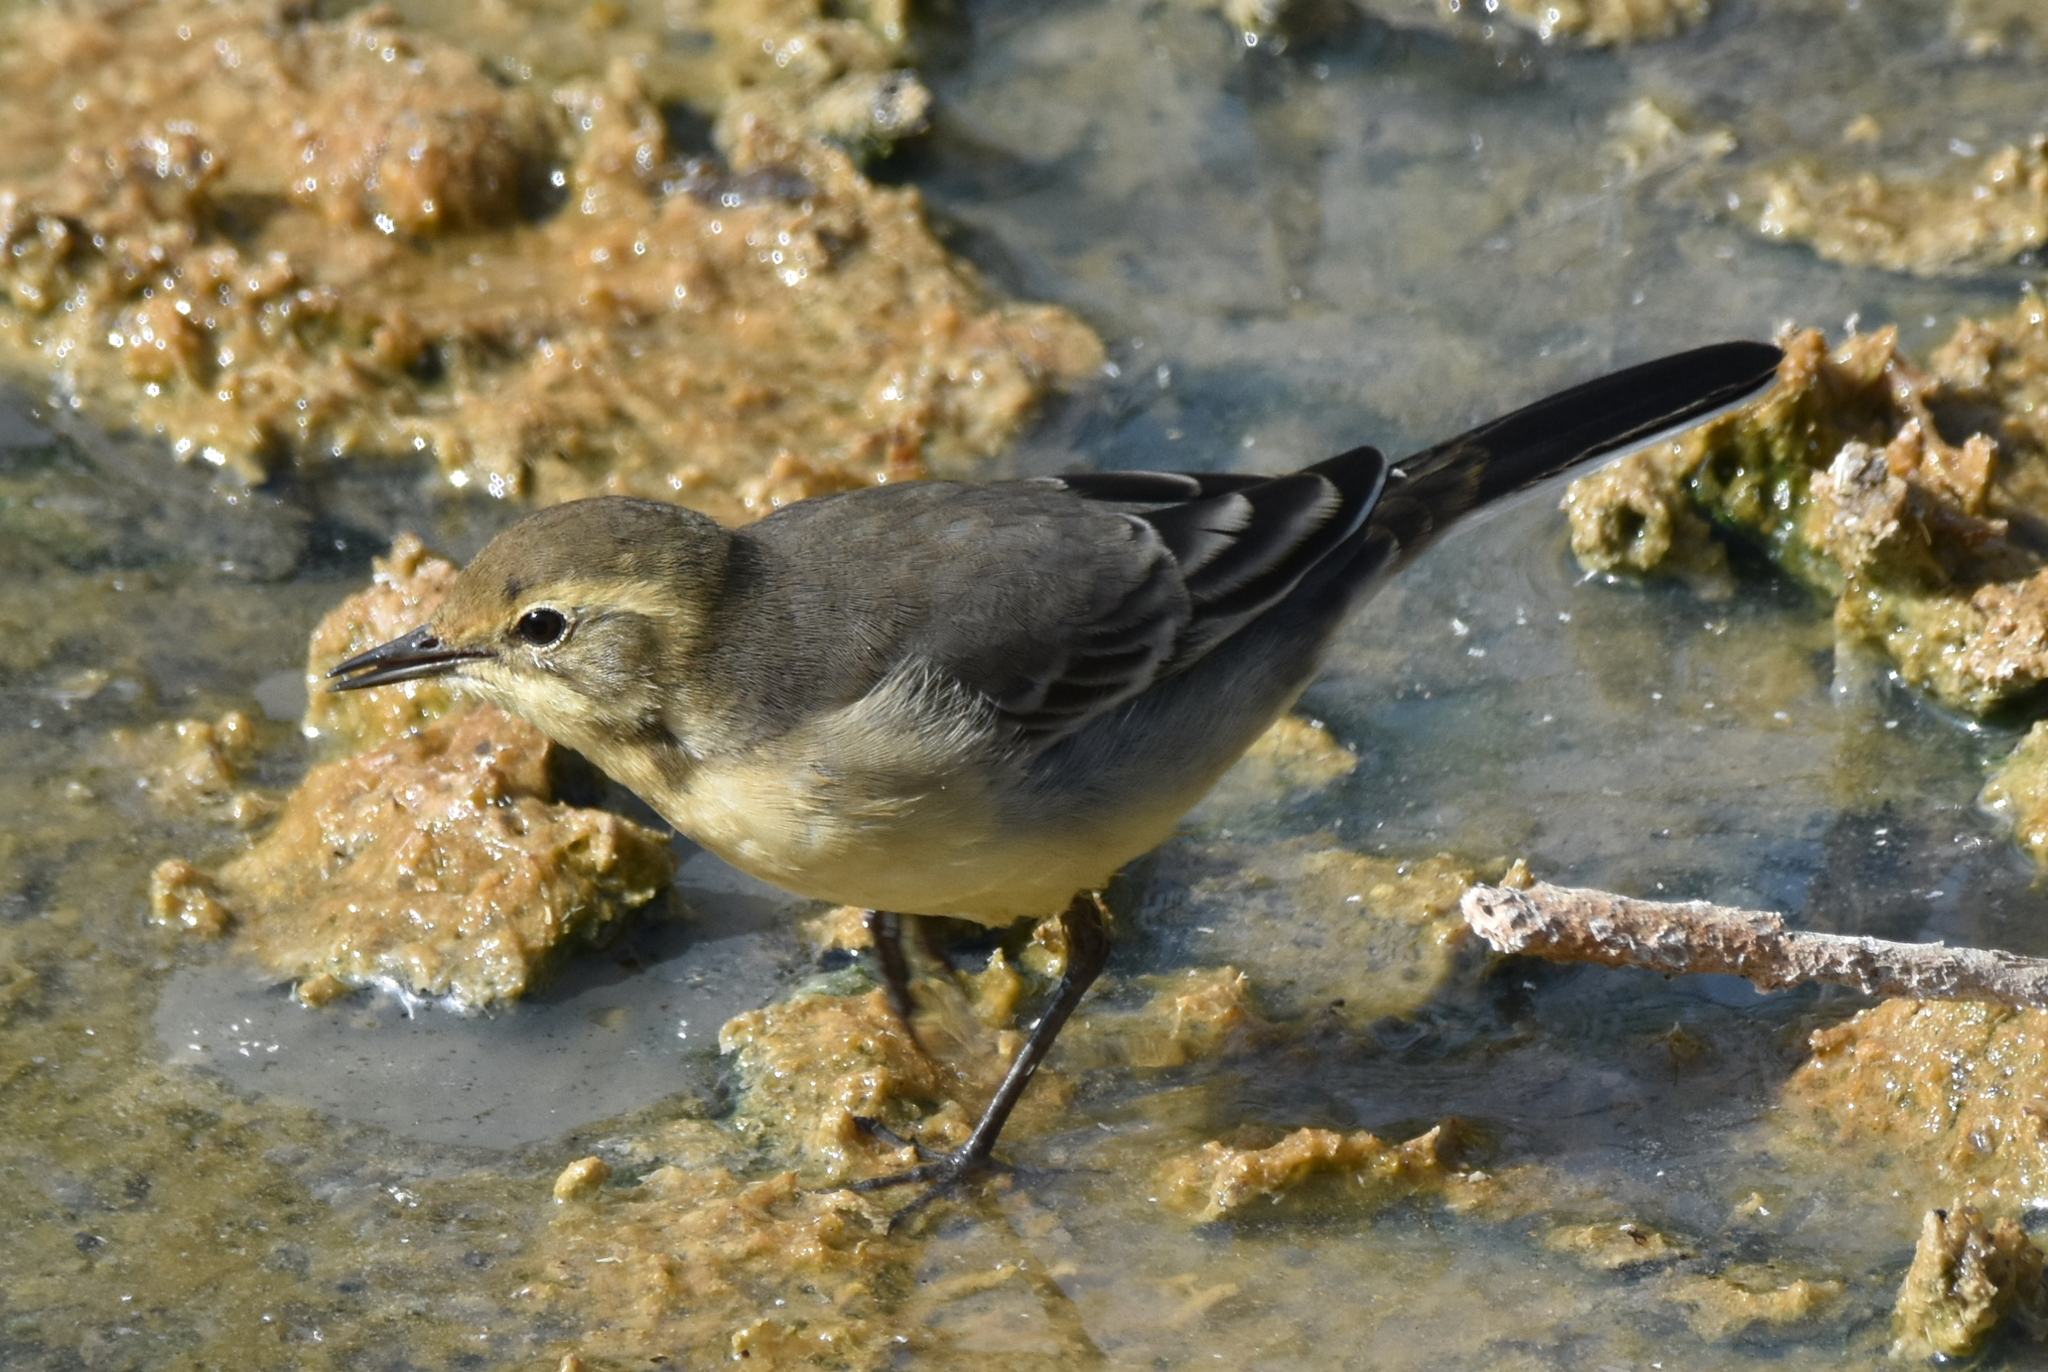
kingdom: Animalia
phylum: Chordata
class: Aves
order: Passeriformes
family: Motacillidae
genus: Motacilla
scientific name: Motacilla flava
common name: Western yellow wagtail
